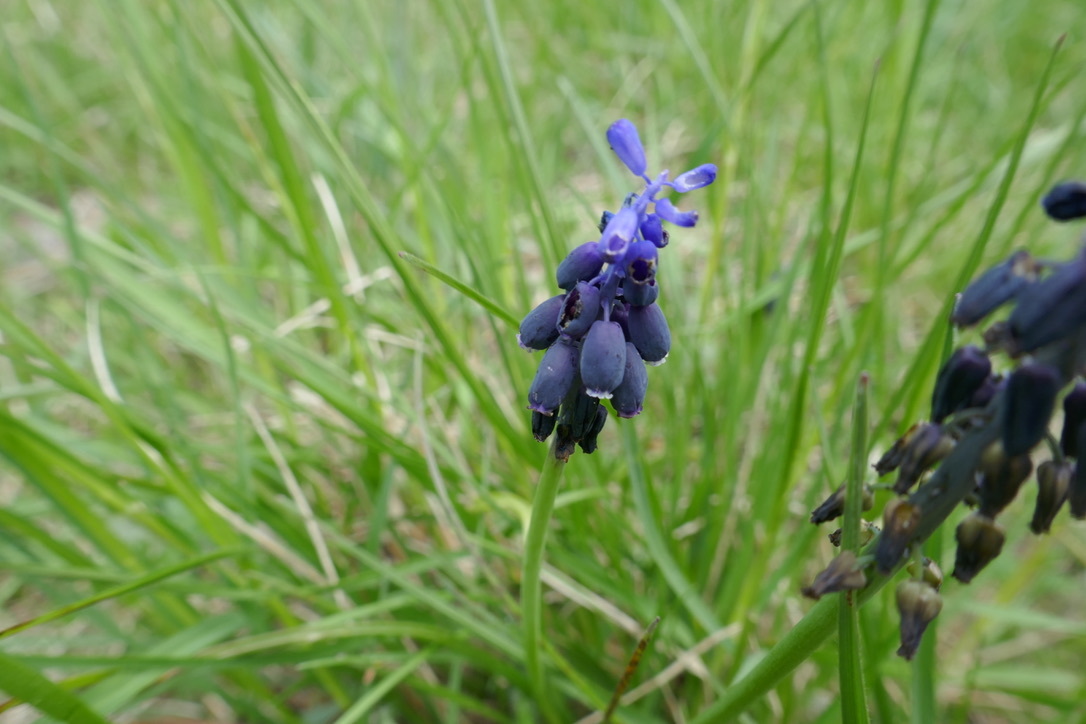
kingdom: Plantae
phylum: Tracheophyta
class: Liliopsida
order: Asparagales
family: Asparagaceae
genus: Muscari
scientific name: Muscari neglectum
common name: Grape-hyacinth
